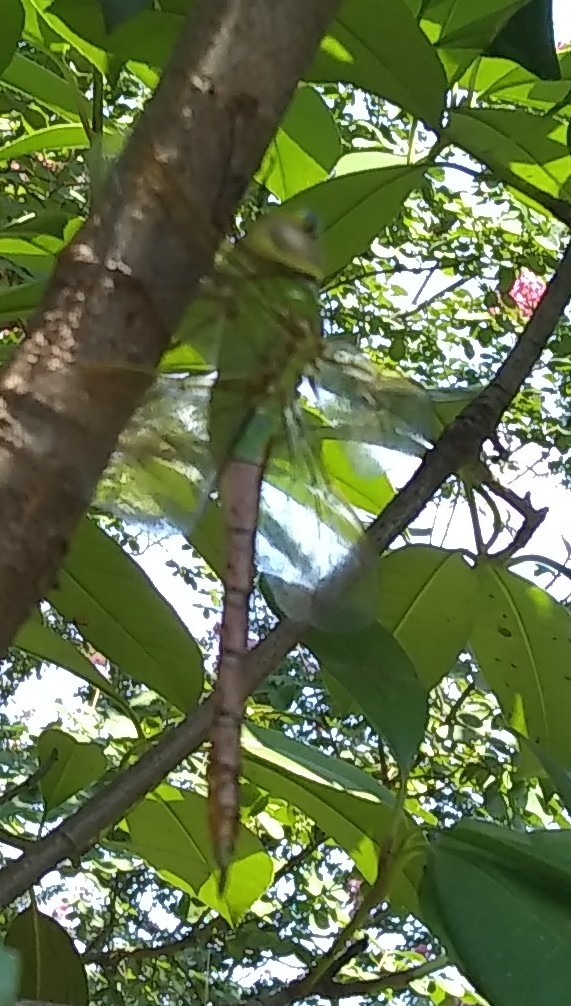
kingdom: Animalia
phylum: Arthropoda
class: Insecta
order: Odonata
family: Aeshnidae
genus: Anax
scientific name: Anax junius
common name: Common green darner
